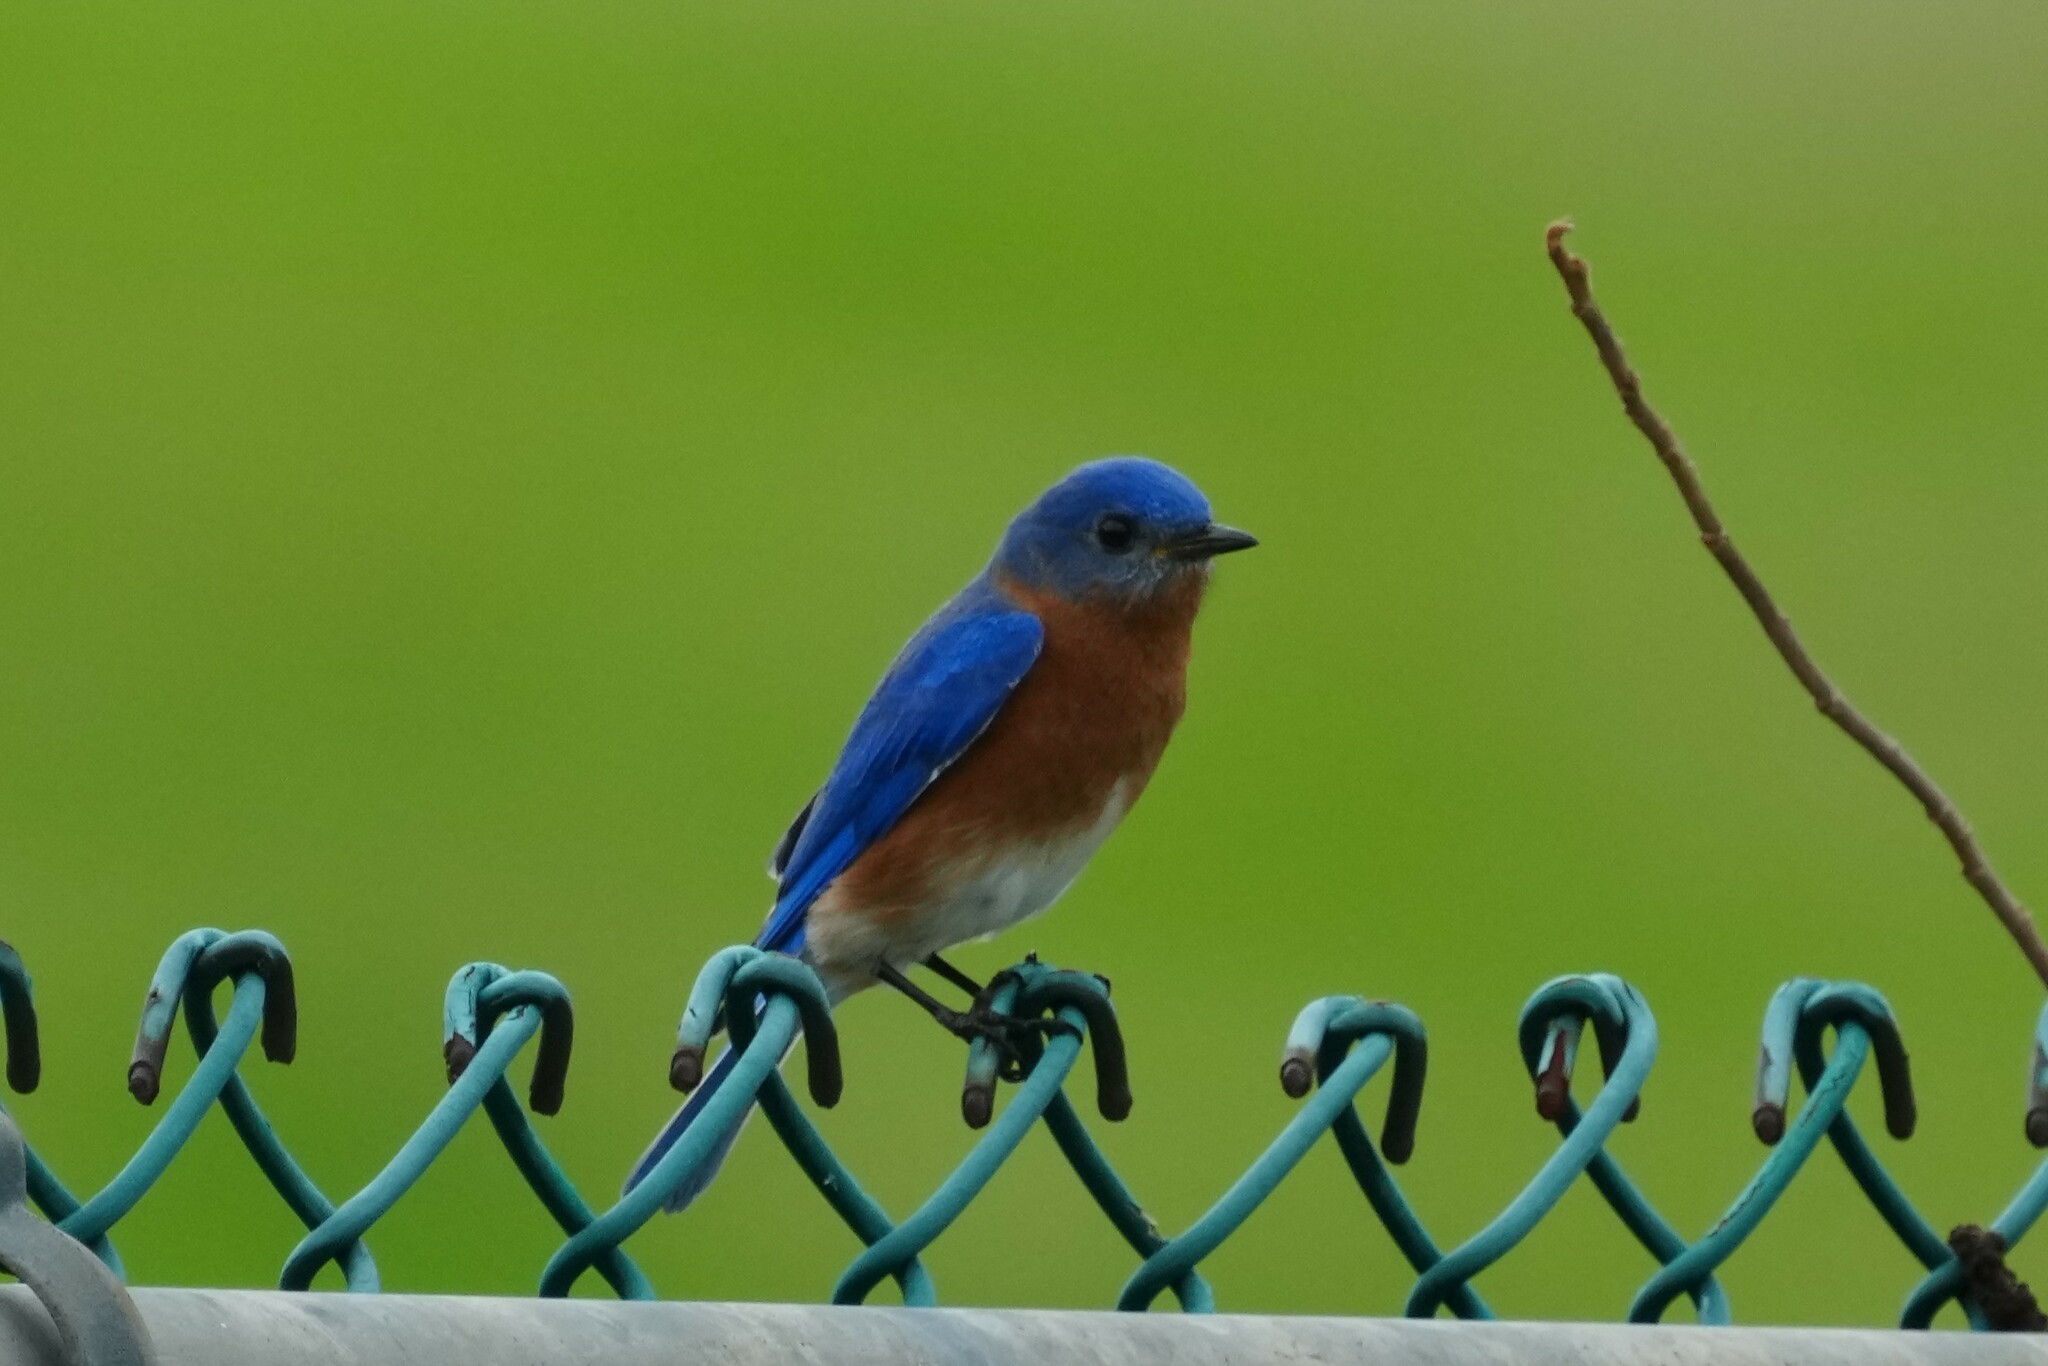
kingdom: Animalia
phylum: Chordata
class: Aves
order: Passeriformes
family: Turdidae
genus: Sialia
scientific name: Sialia sialis
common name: Eastern bluebird
